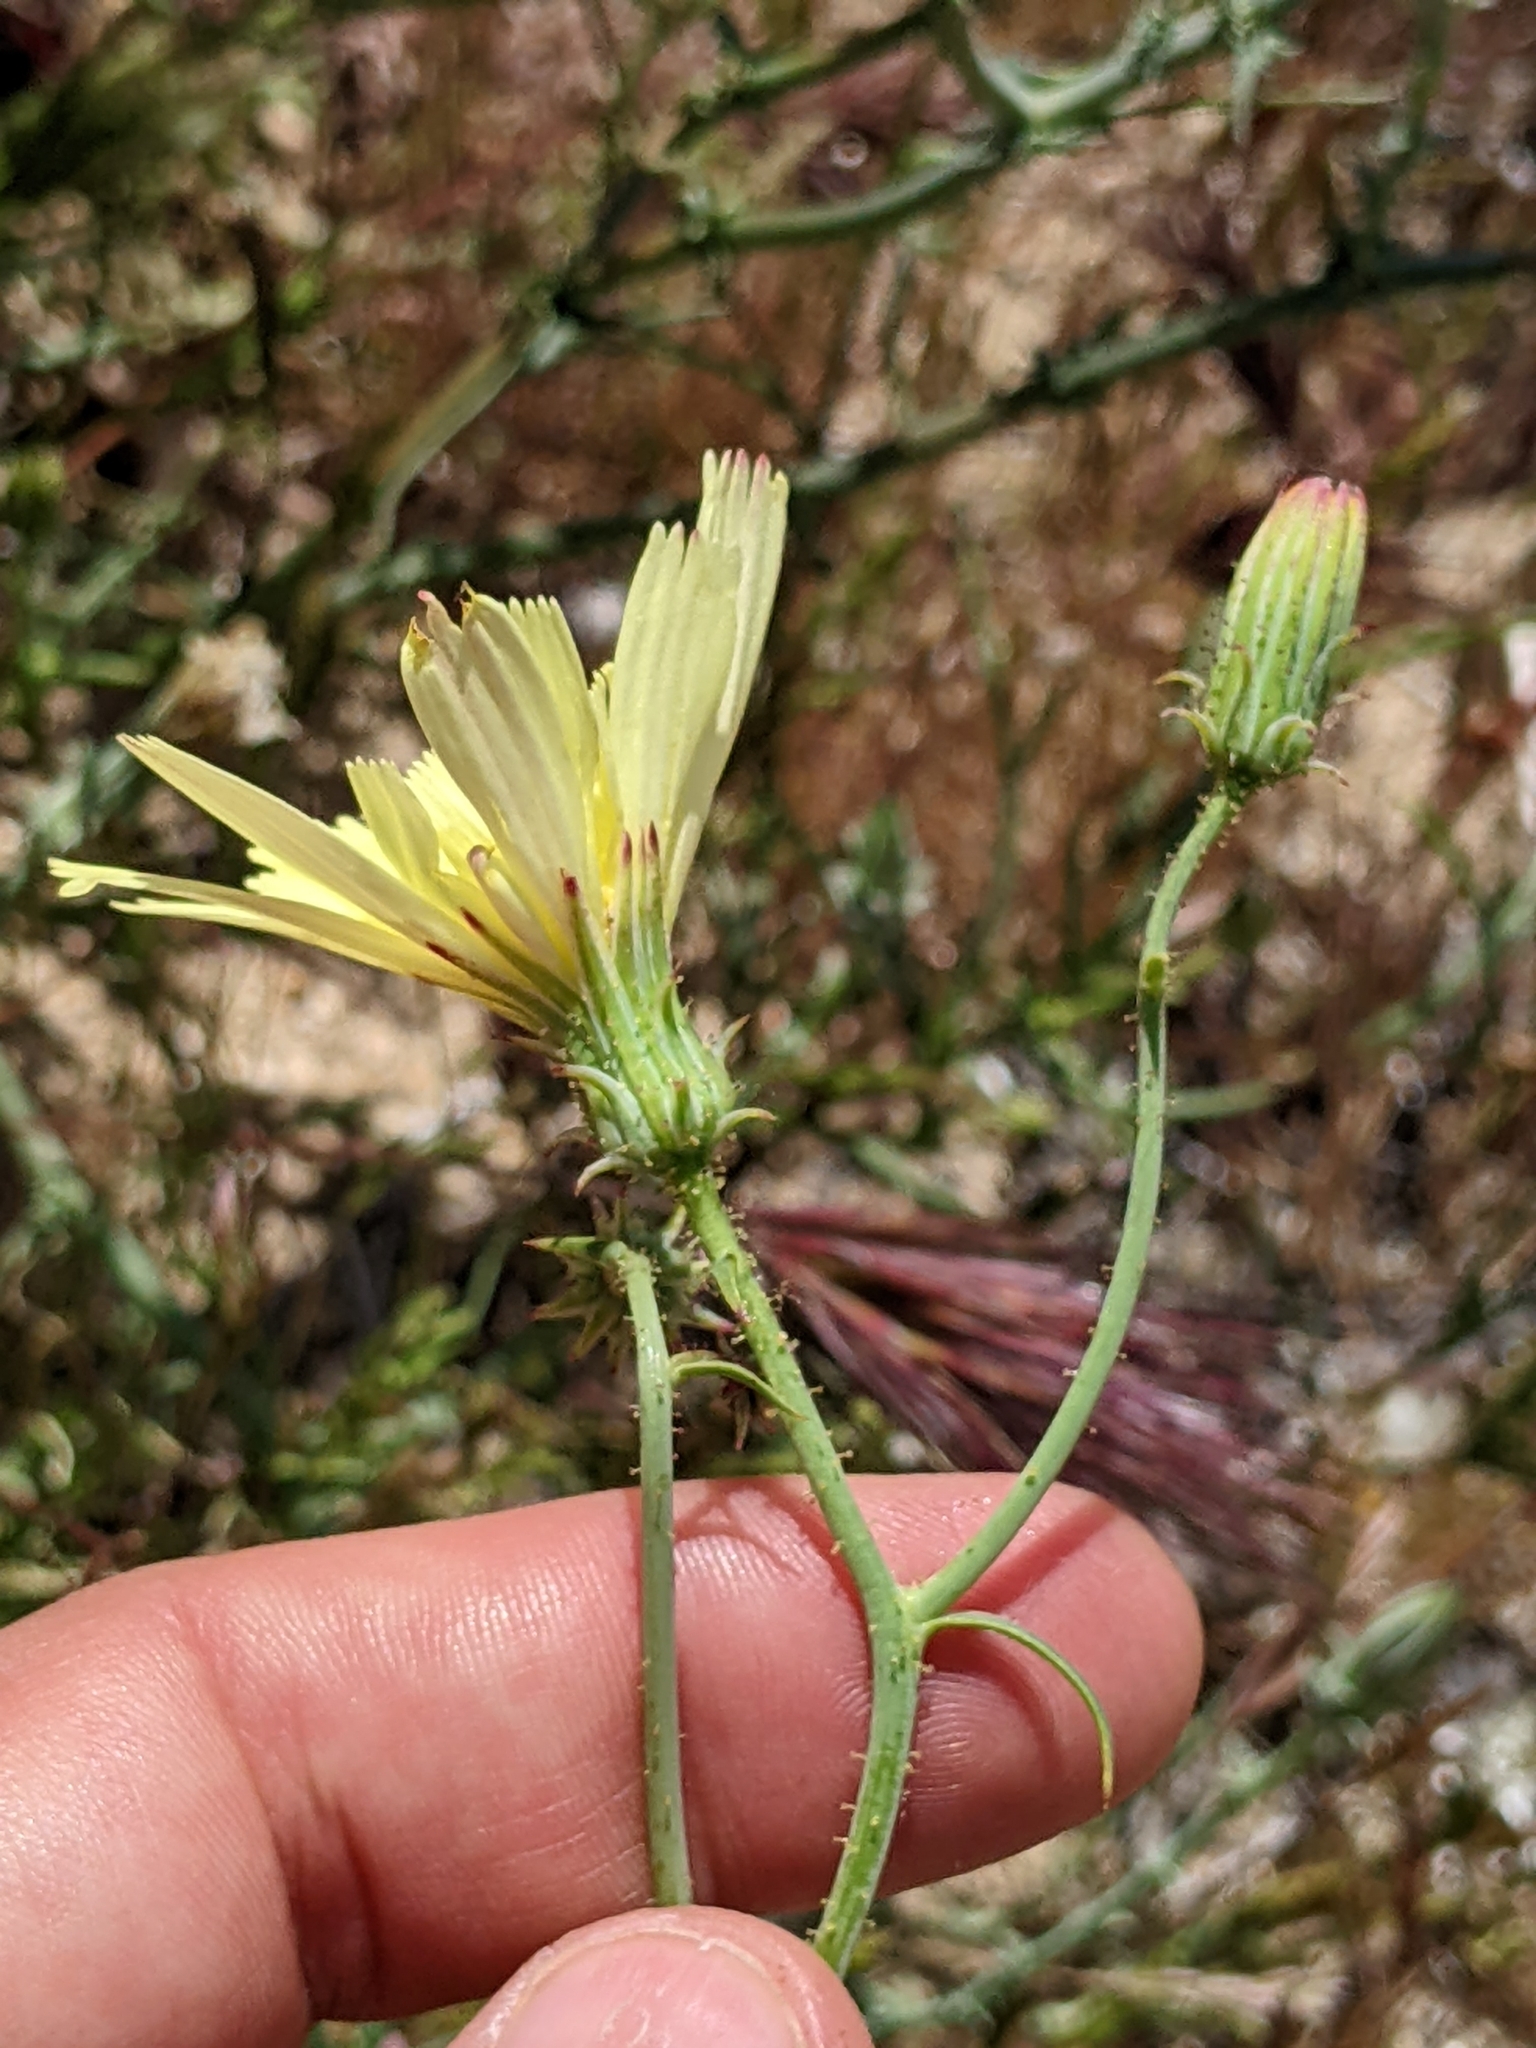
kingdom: Plantae
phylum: Tracheophyta
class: Magnoliopsida
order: Asterales
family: Asteraceae
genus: Calycoseris
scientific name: Calycoseris parryi
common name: Yellow tackstem
